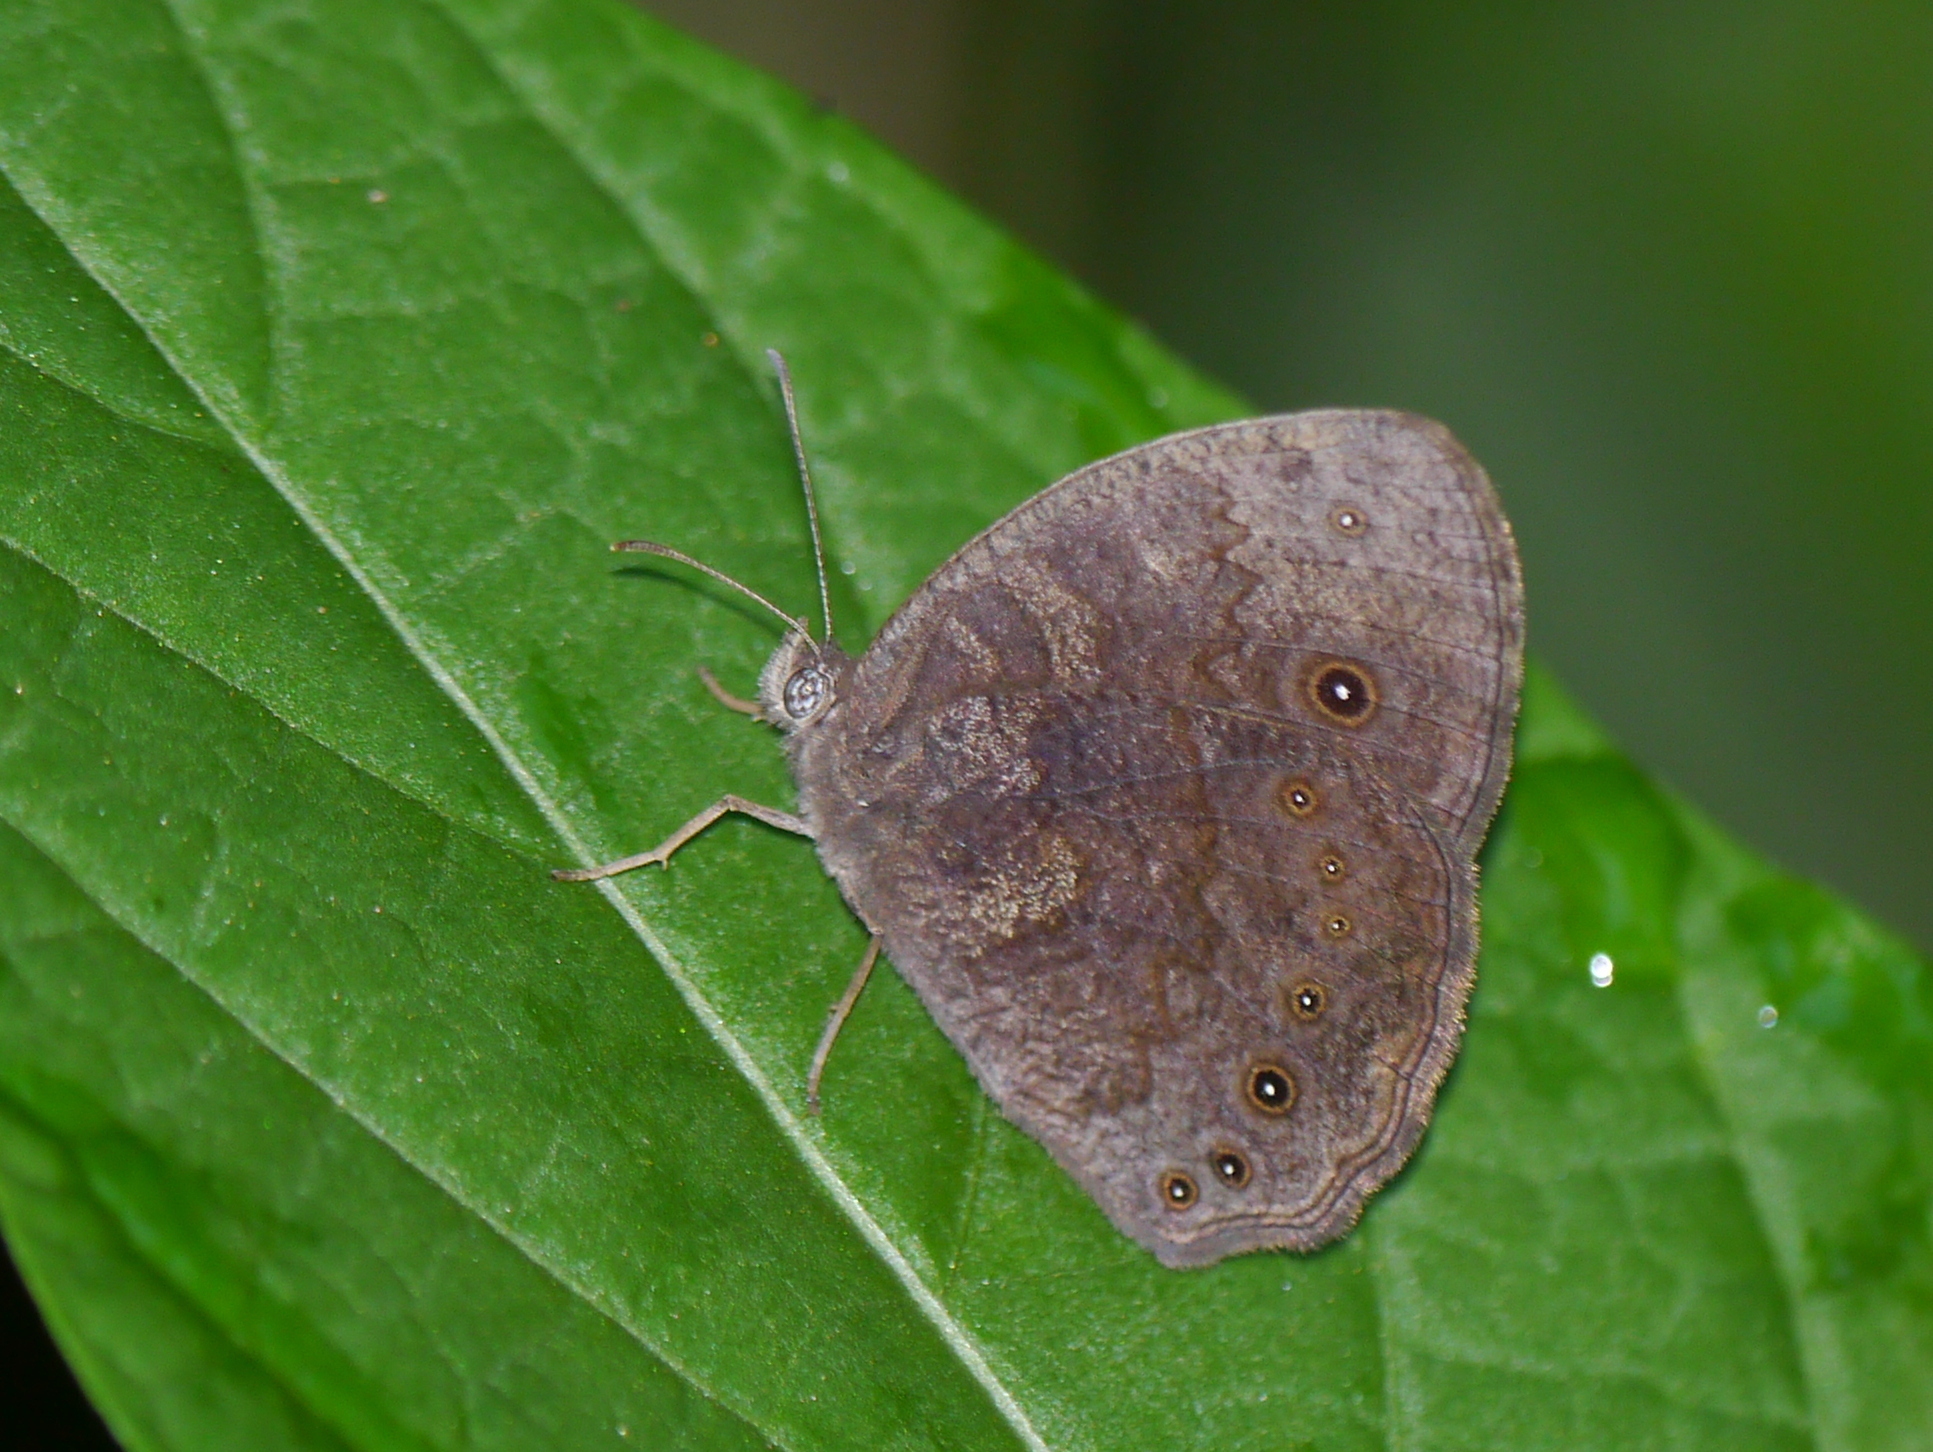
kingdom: Animalia
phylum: Arthropoda
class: Insecta
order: Lepidoptera
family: Nymphalidae
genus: Mycalesis
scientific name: Mycalesis vulgaris
